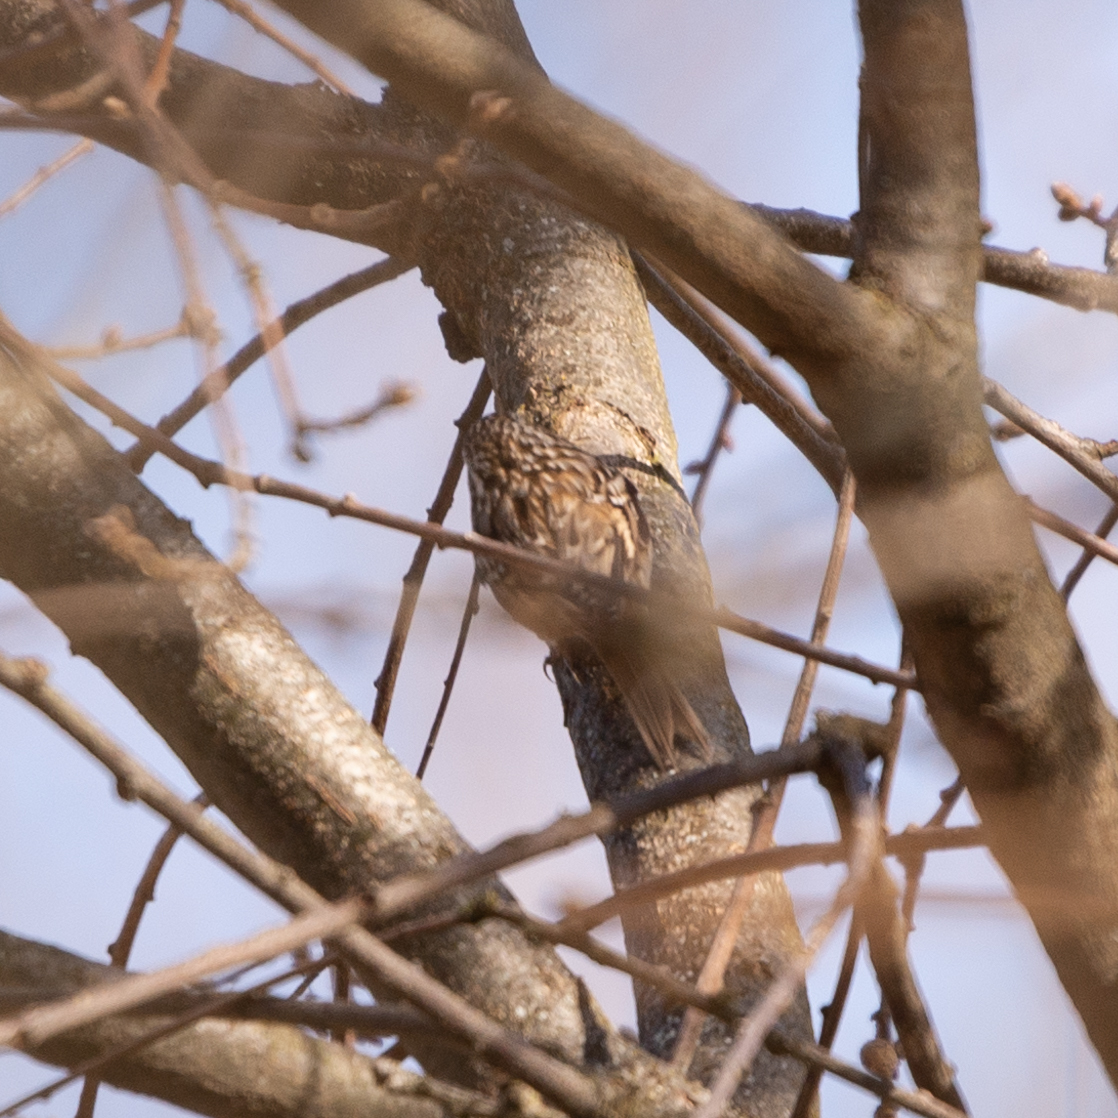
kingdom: Animalia
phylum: Chordata
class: Aves
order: Passeriformes
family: Certhiidae
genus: Certhia
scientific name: Certhia brachydactyla
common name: Short-toed treecreeper
